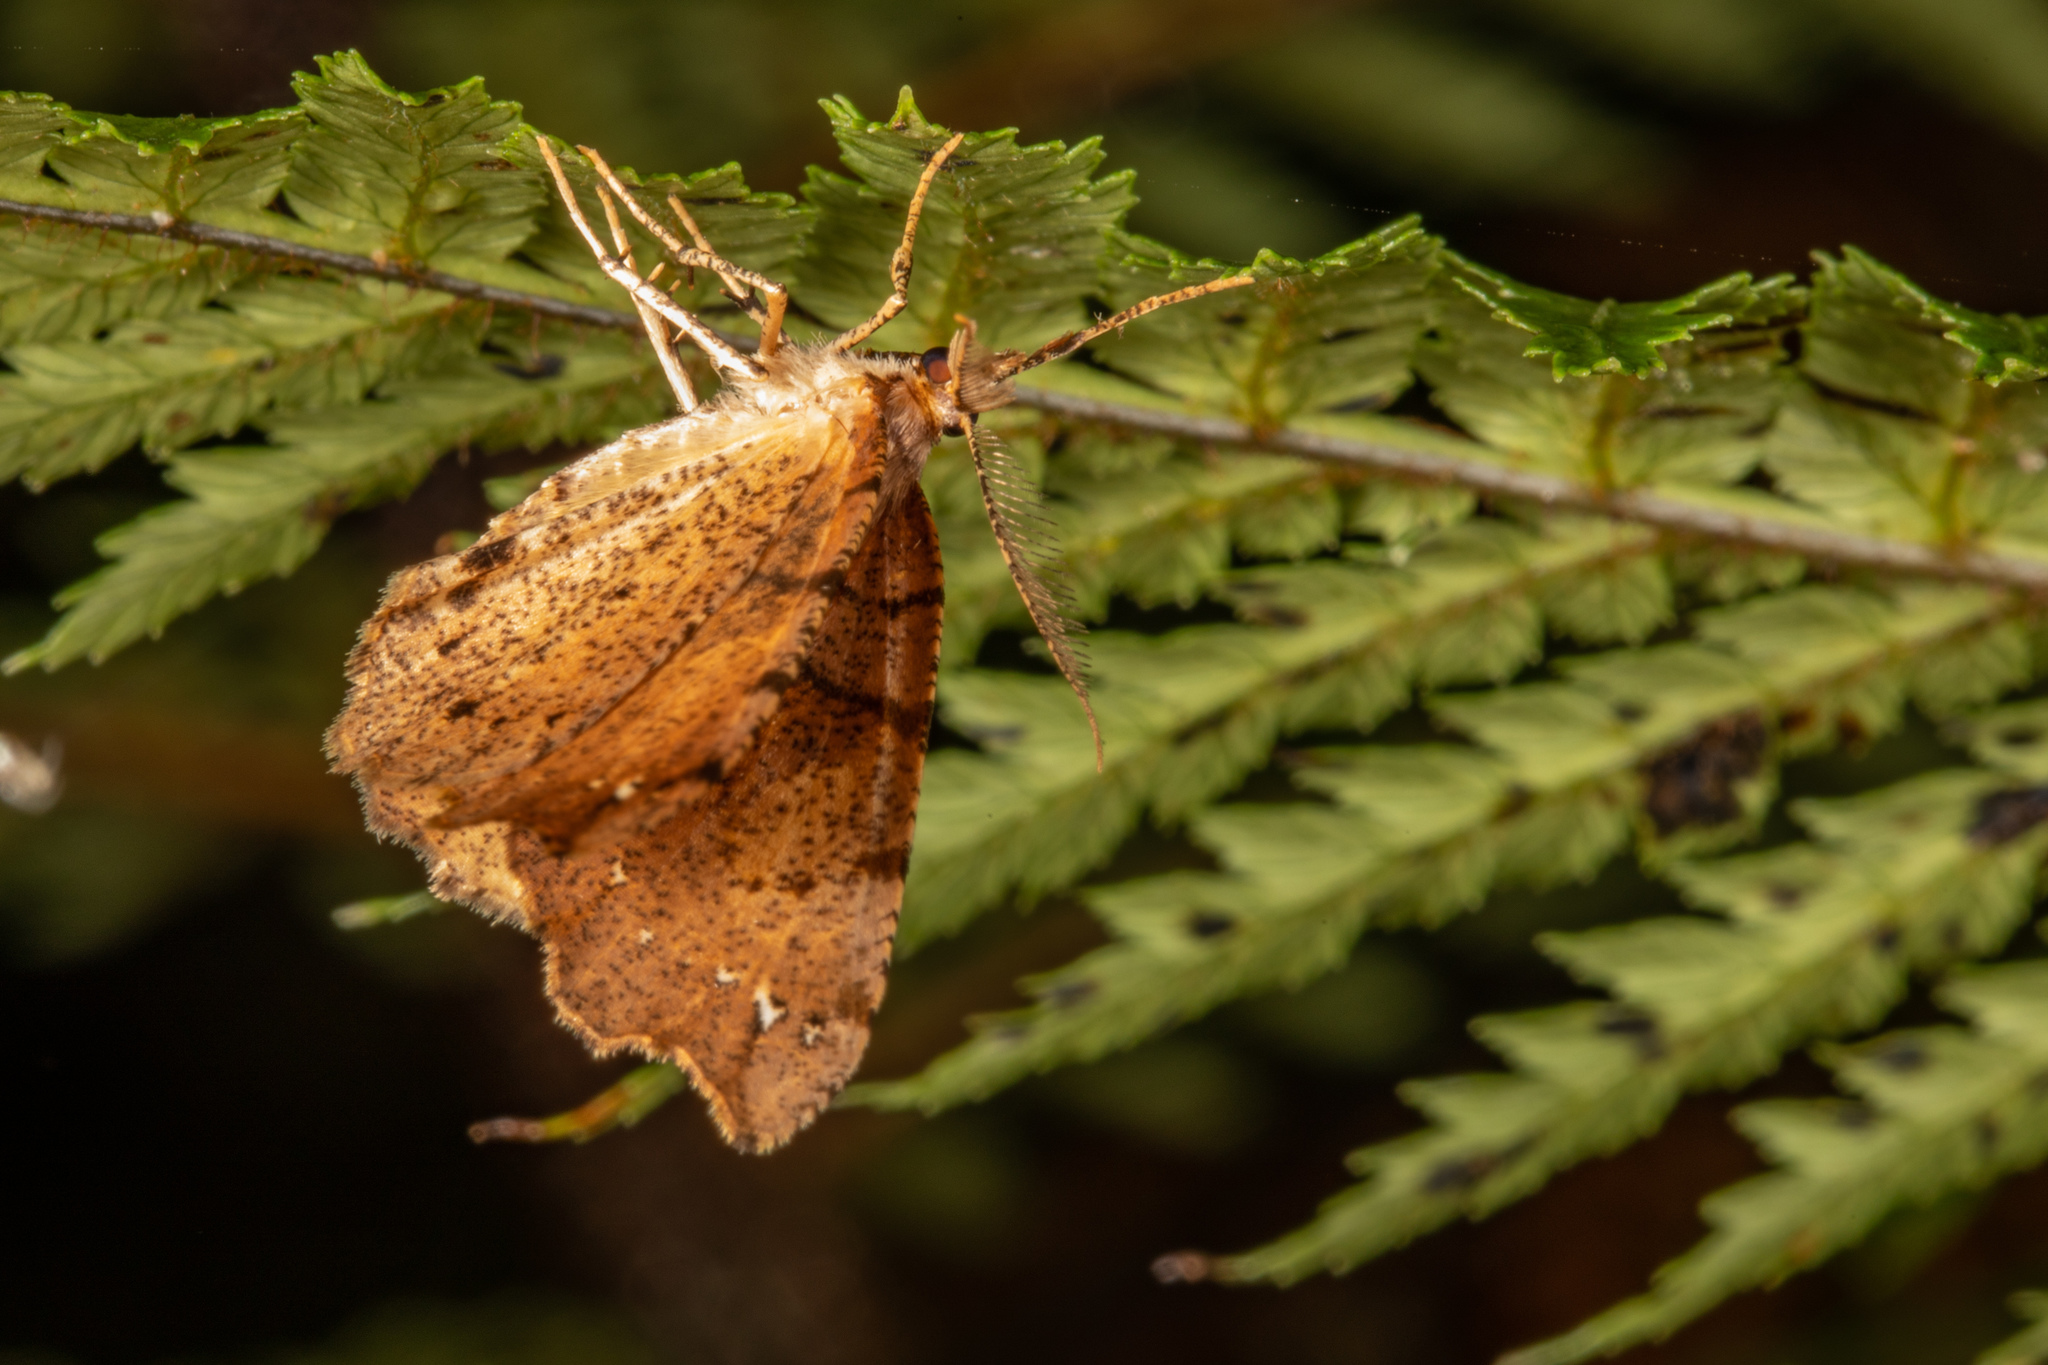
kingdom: Animalia
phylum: Arthropoda
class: Insecta
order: Lepidoptera
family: Geometridae
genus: Chalastra
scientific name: Chalastra pellurgata
